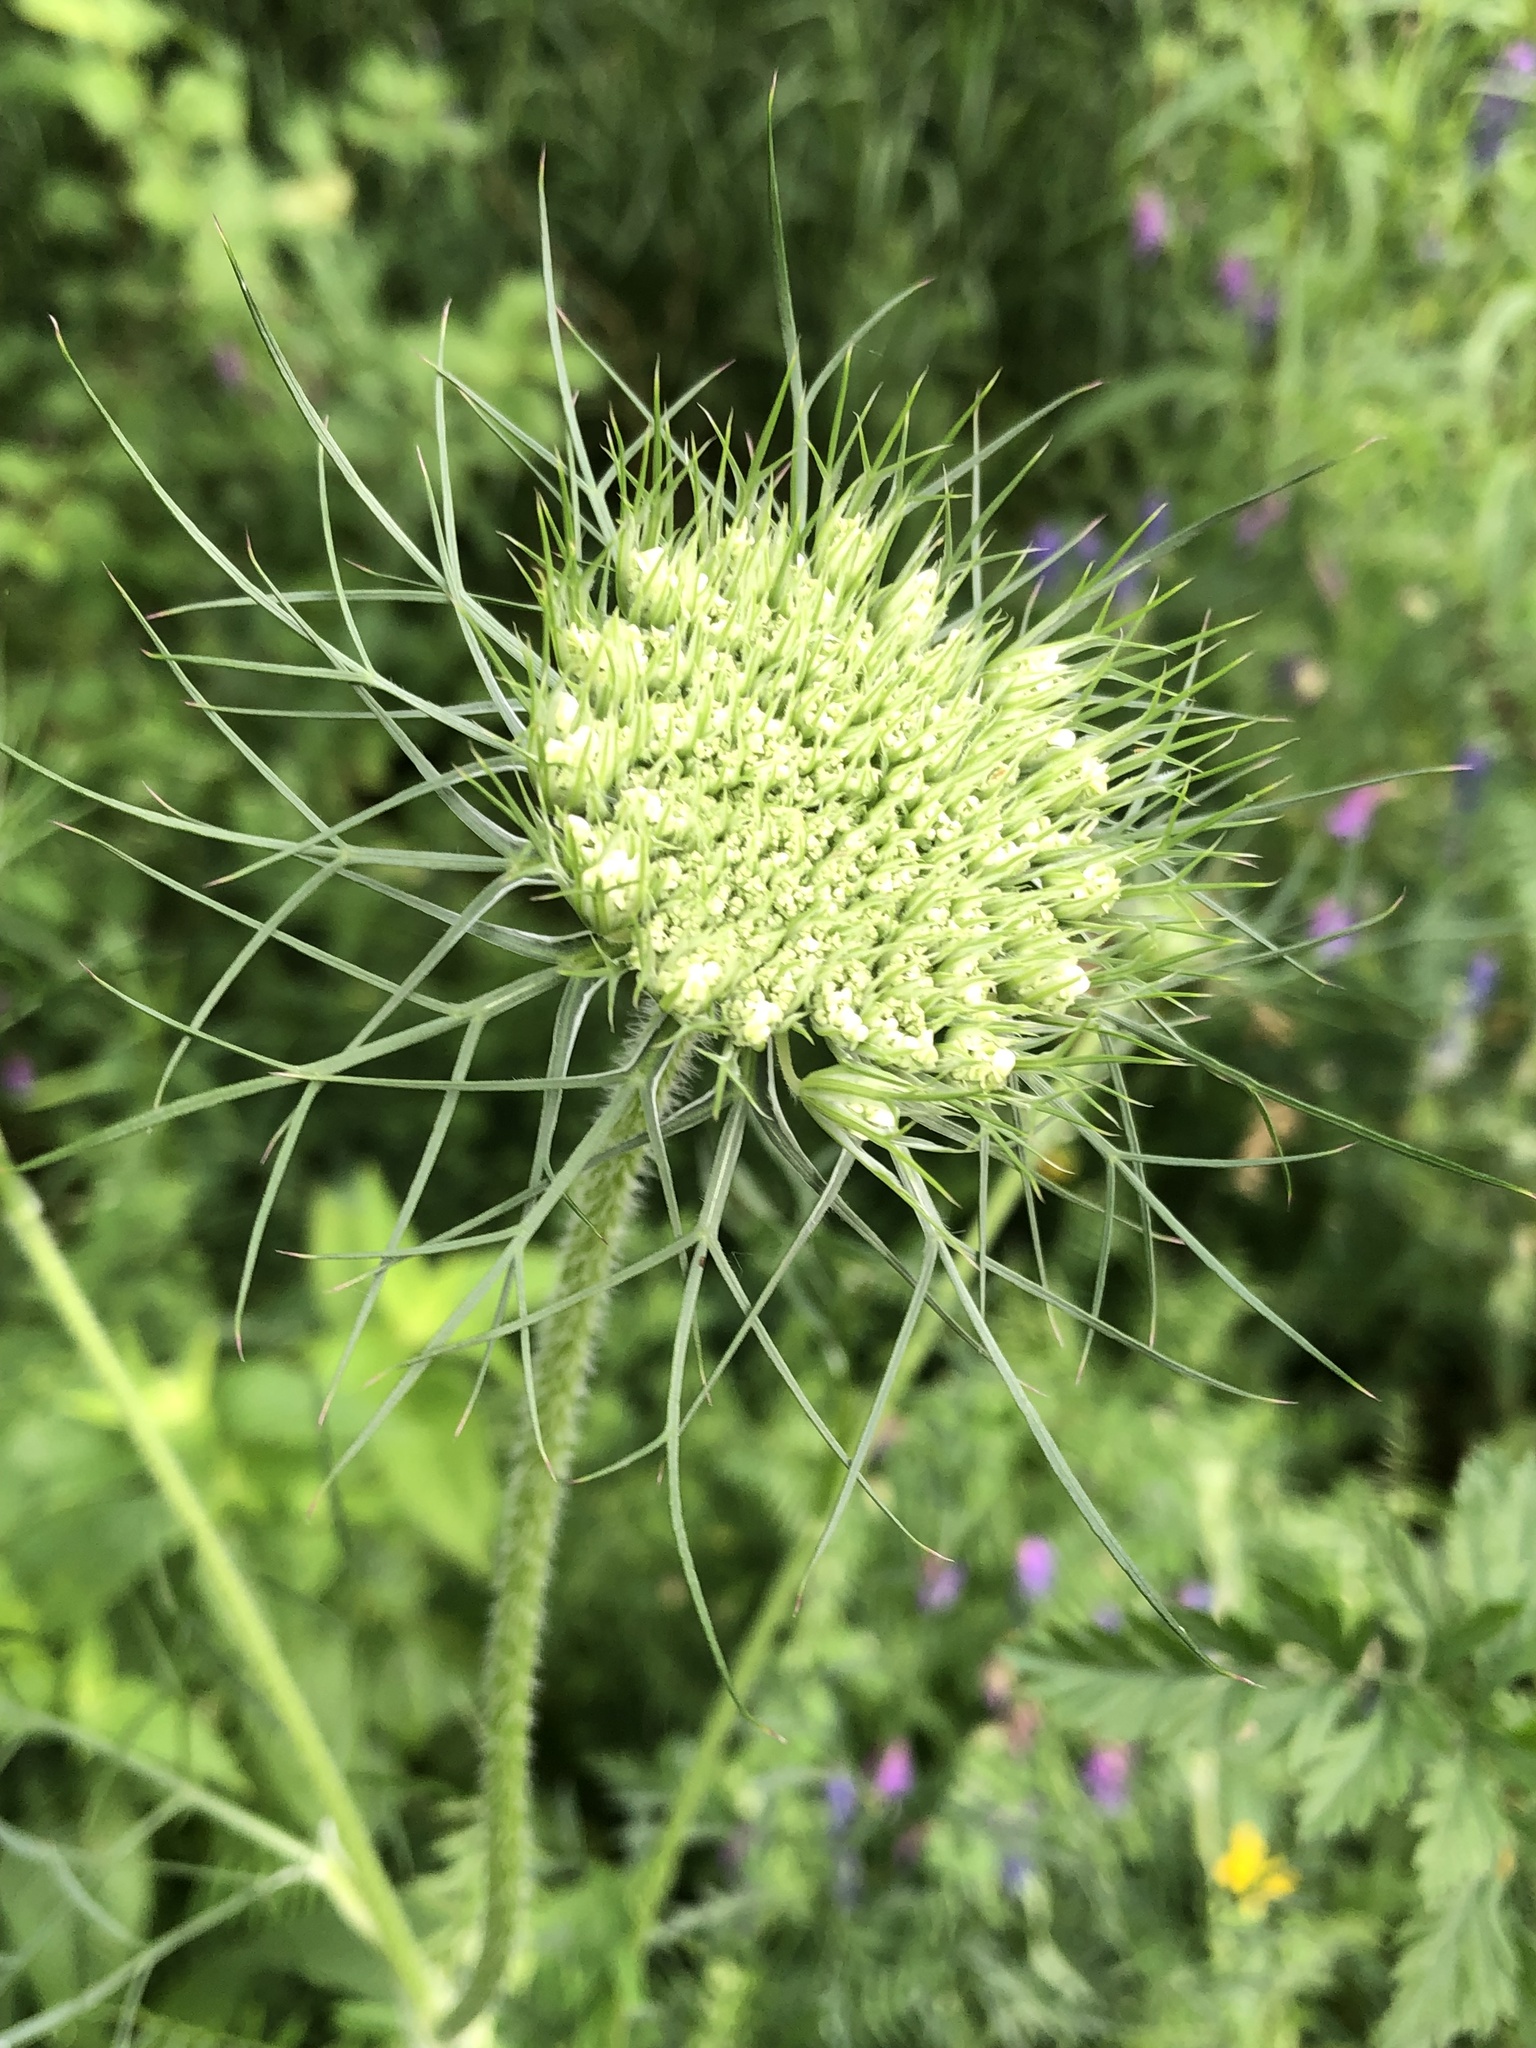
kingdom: Plantae
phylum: Tracheophyta
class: Magnoliopsida
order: Apiales
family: Apiaceae
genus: Daucus
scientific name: Daucus carota
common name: Wild carrot
